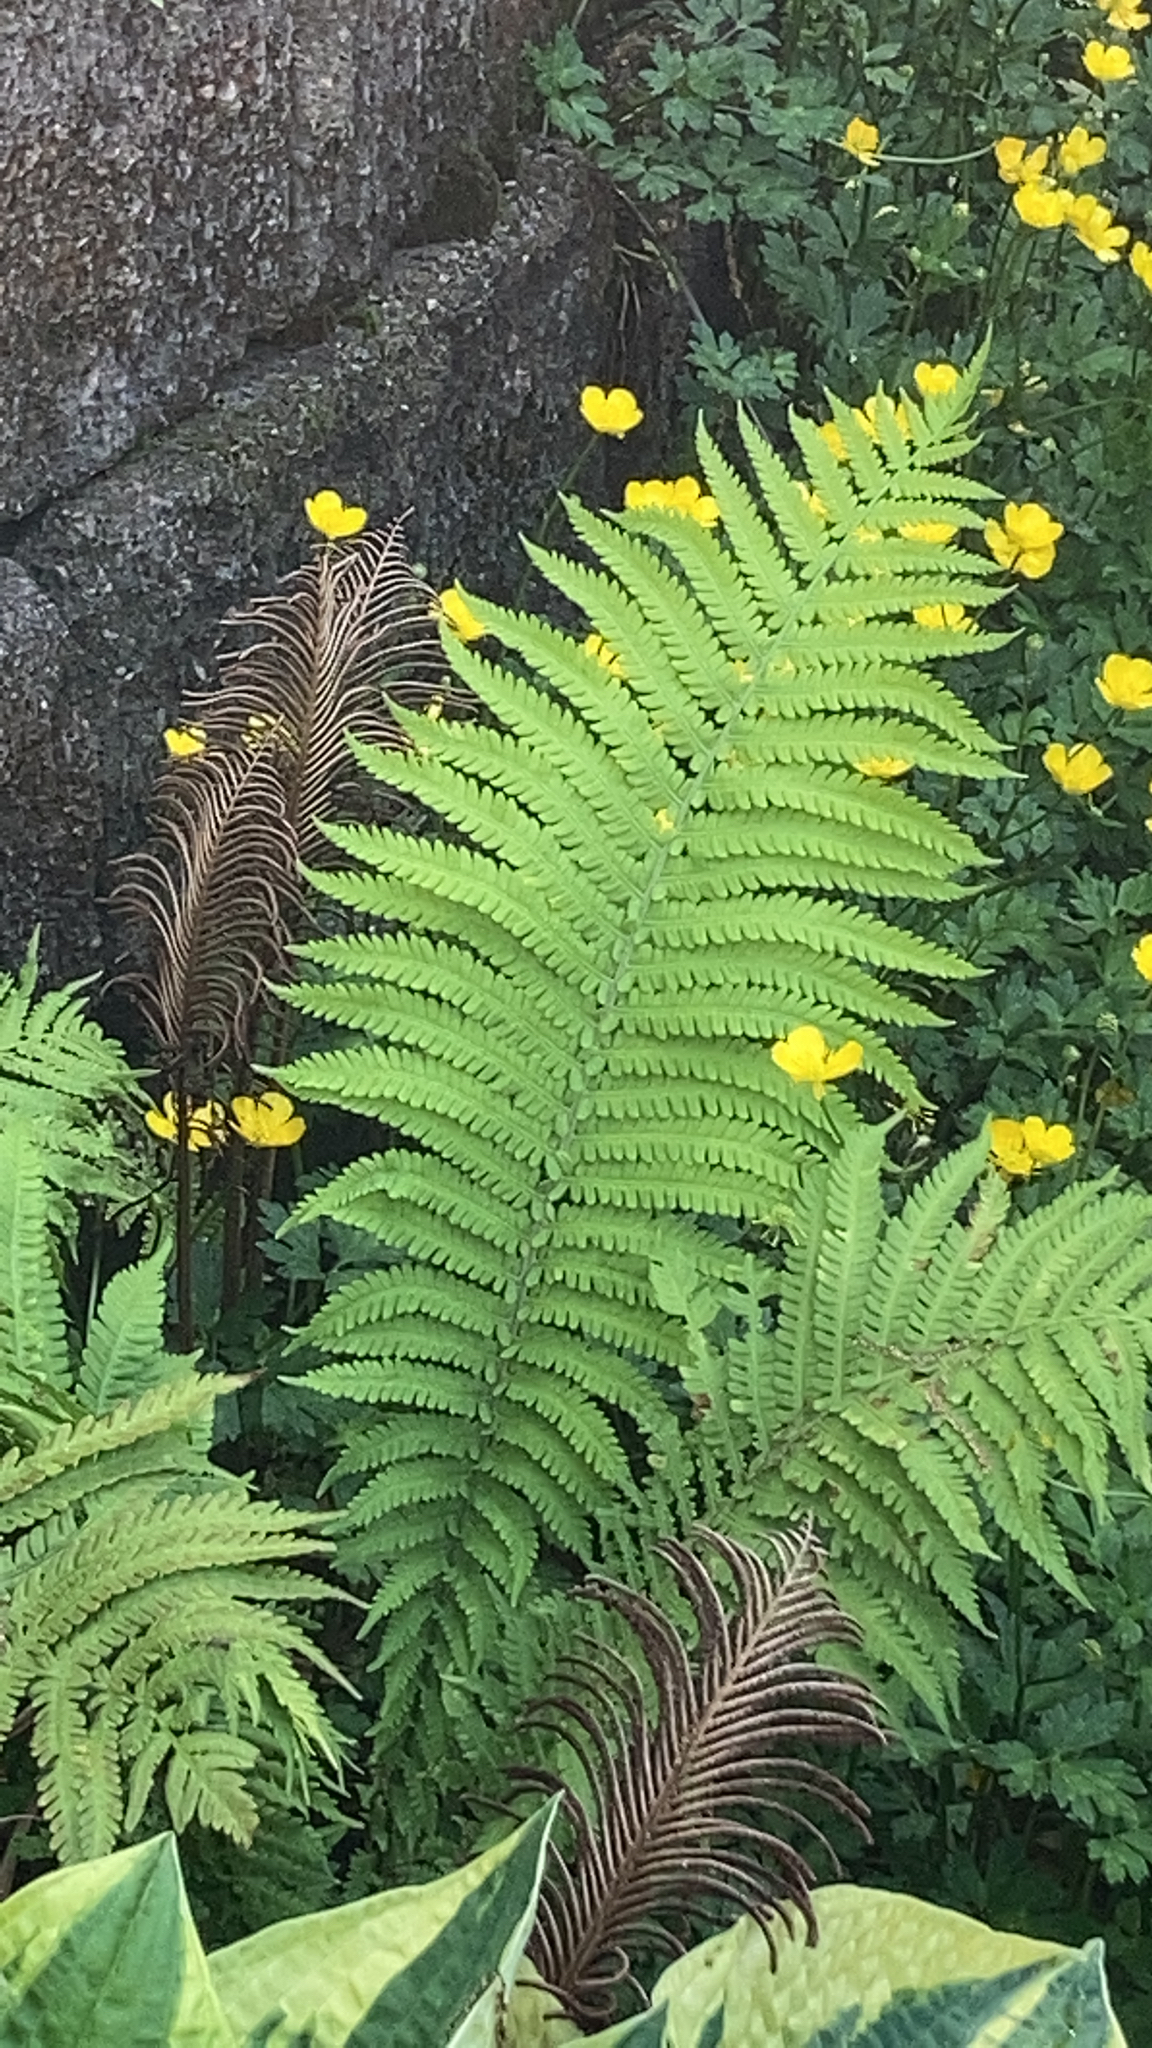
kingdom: Plantae
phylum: Tracheophyta
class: Polypodiopsida
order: Polypodiales
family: Onocleaceae
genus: Matteuccia
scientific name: Matteuccia struthiopteris
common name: Ostrich fern
